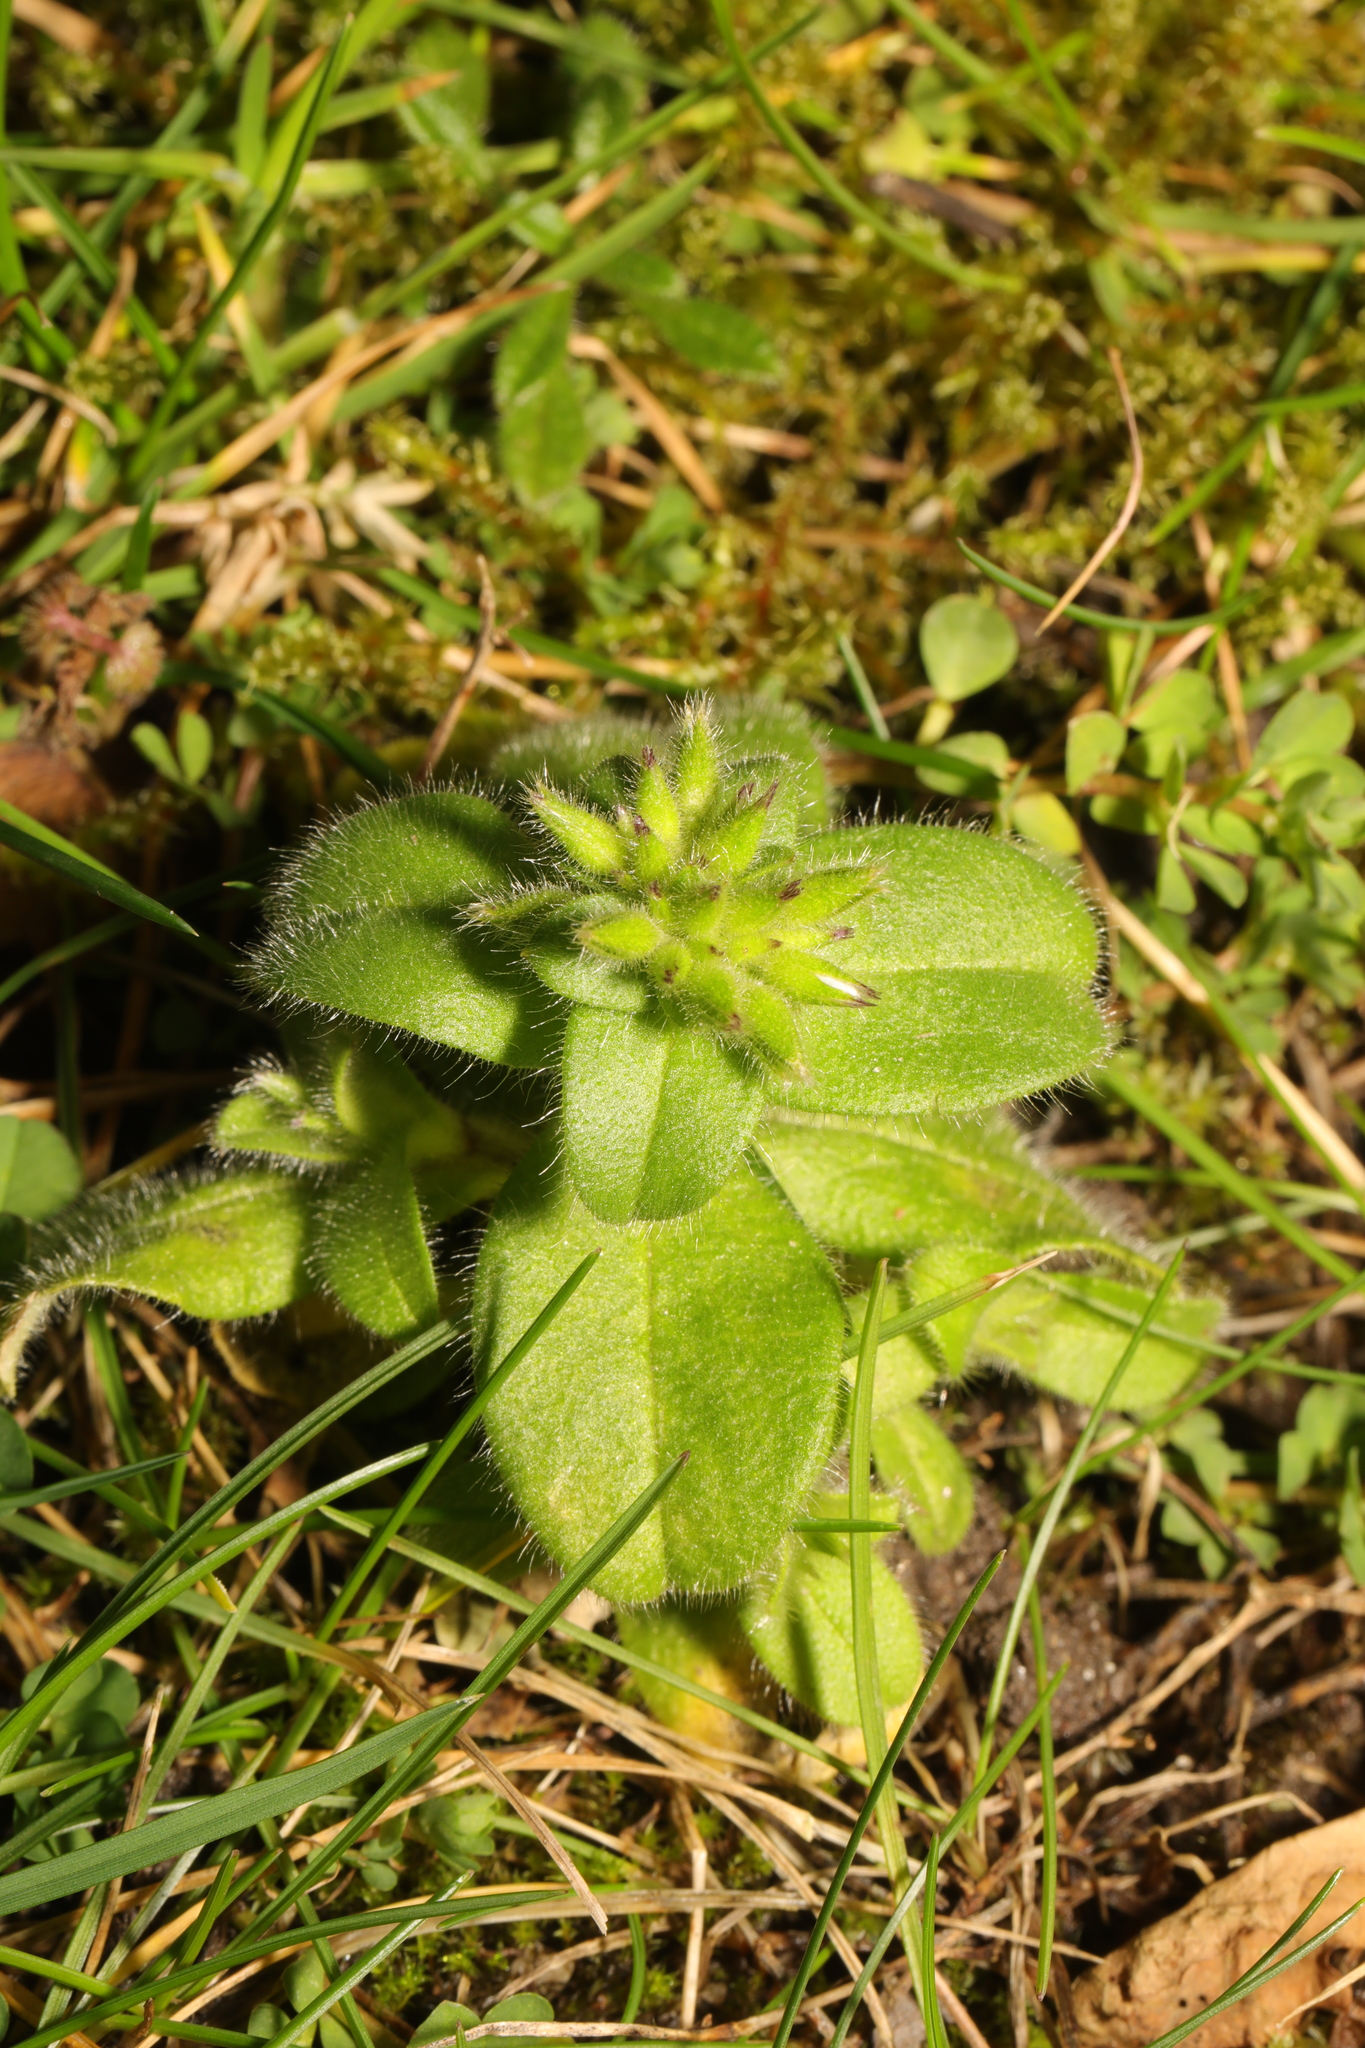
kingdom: Plantae
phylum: Tracheophyta
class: Magnoliopsida
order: Caryophyllales
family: Caryophyllaceae
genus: Cerastium
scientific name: Cerastium fontanum
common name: Common mouse-ear
